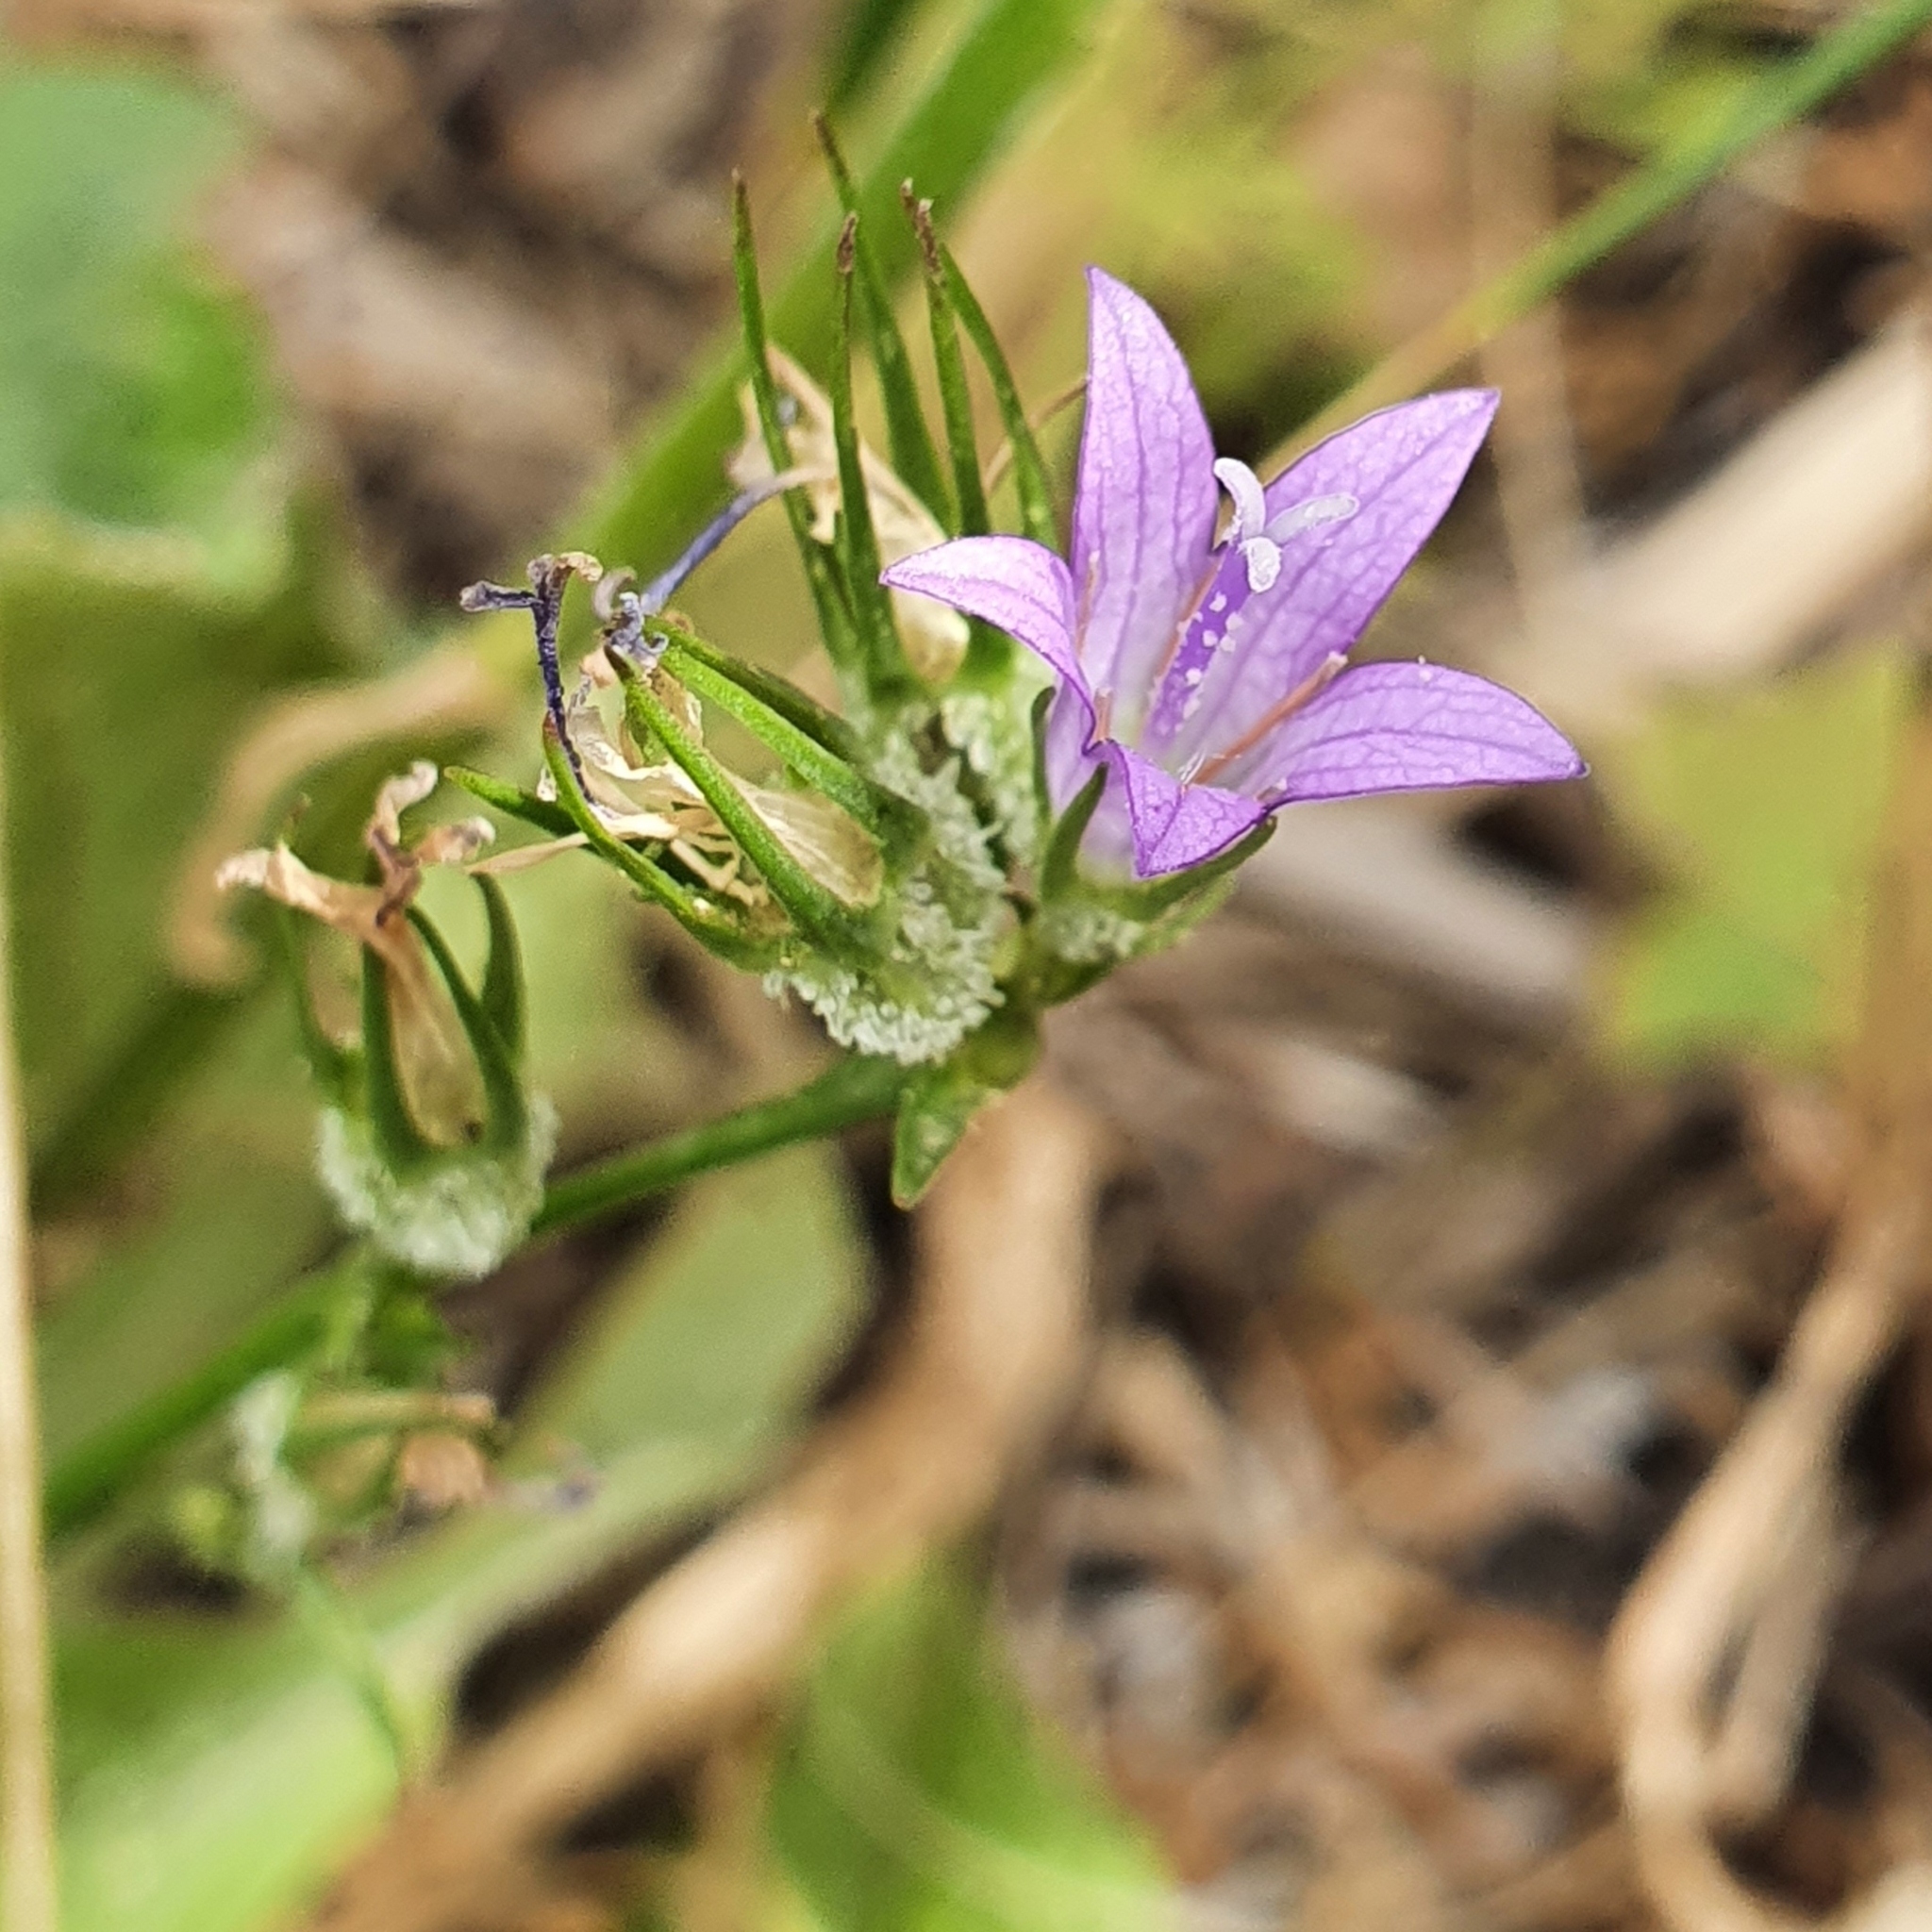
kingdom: Plantae
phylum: Tracheophyta
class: Magnoliopsida
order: Asterales
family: Campanulaceae
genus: Campanula
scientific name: Campanula rapunculus
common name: Rampion bellflower
